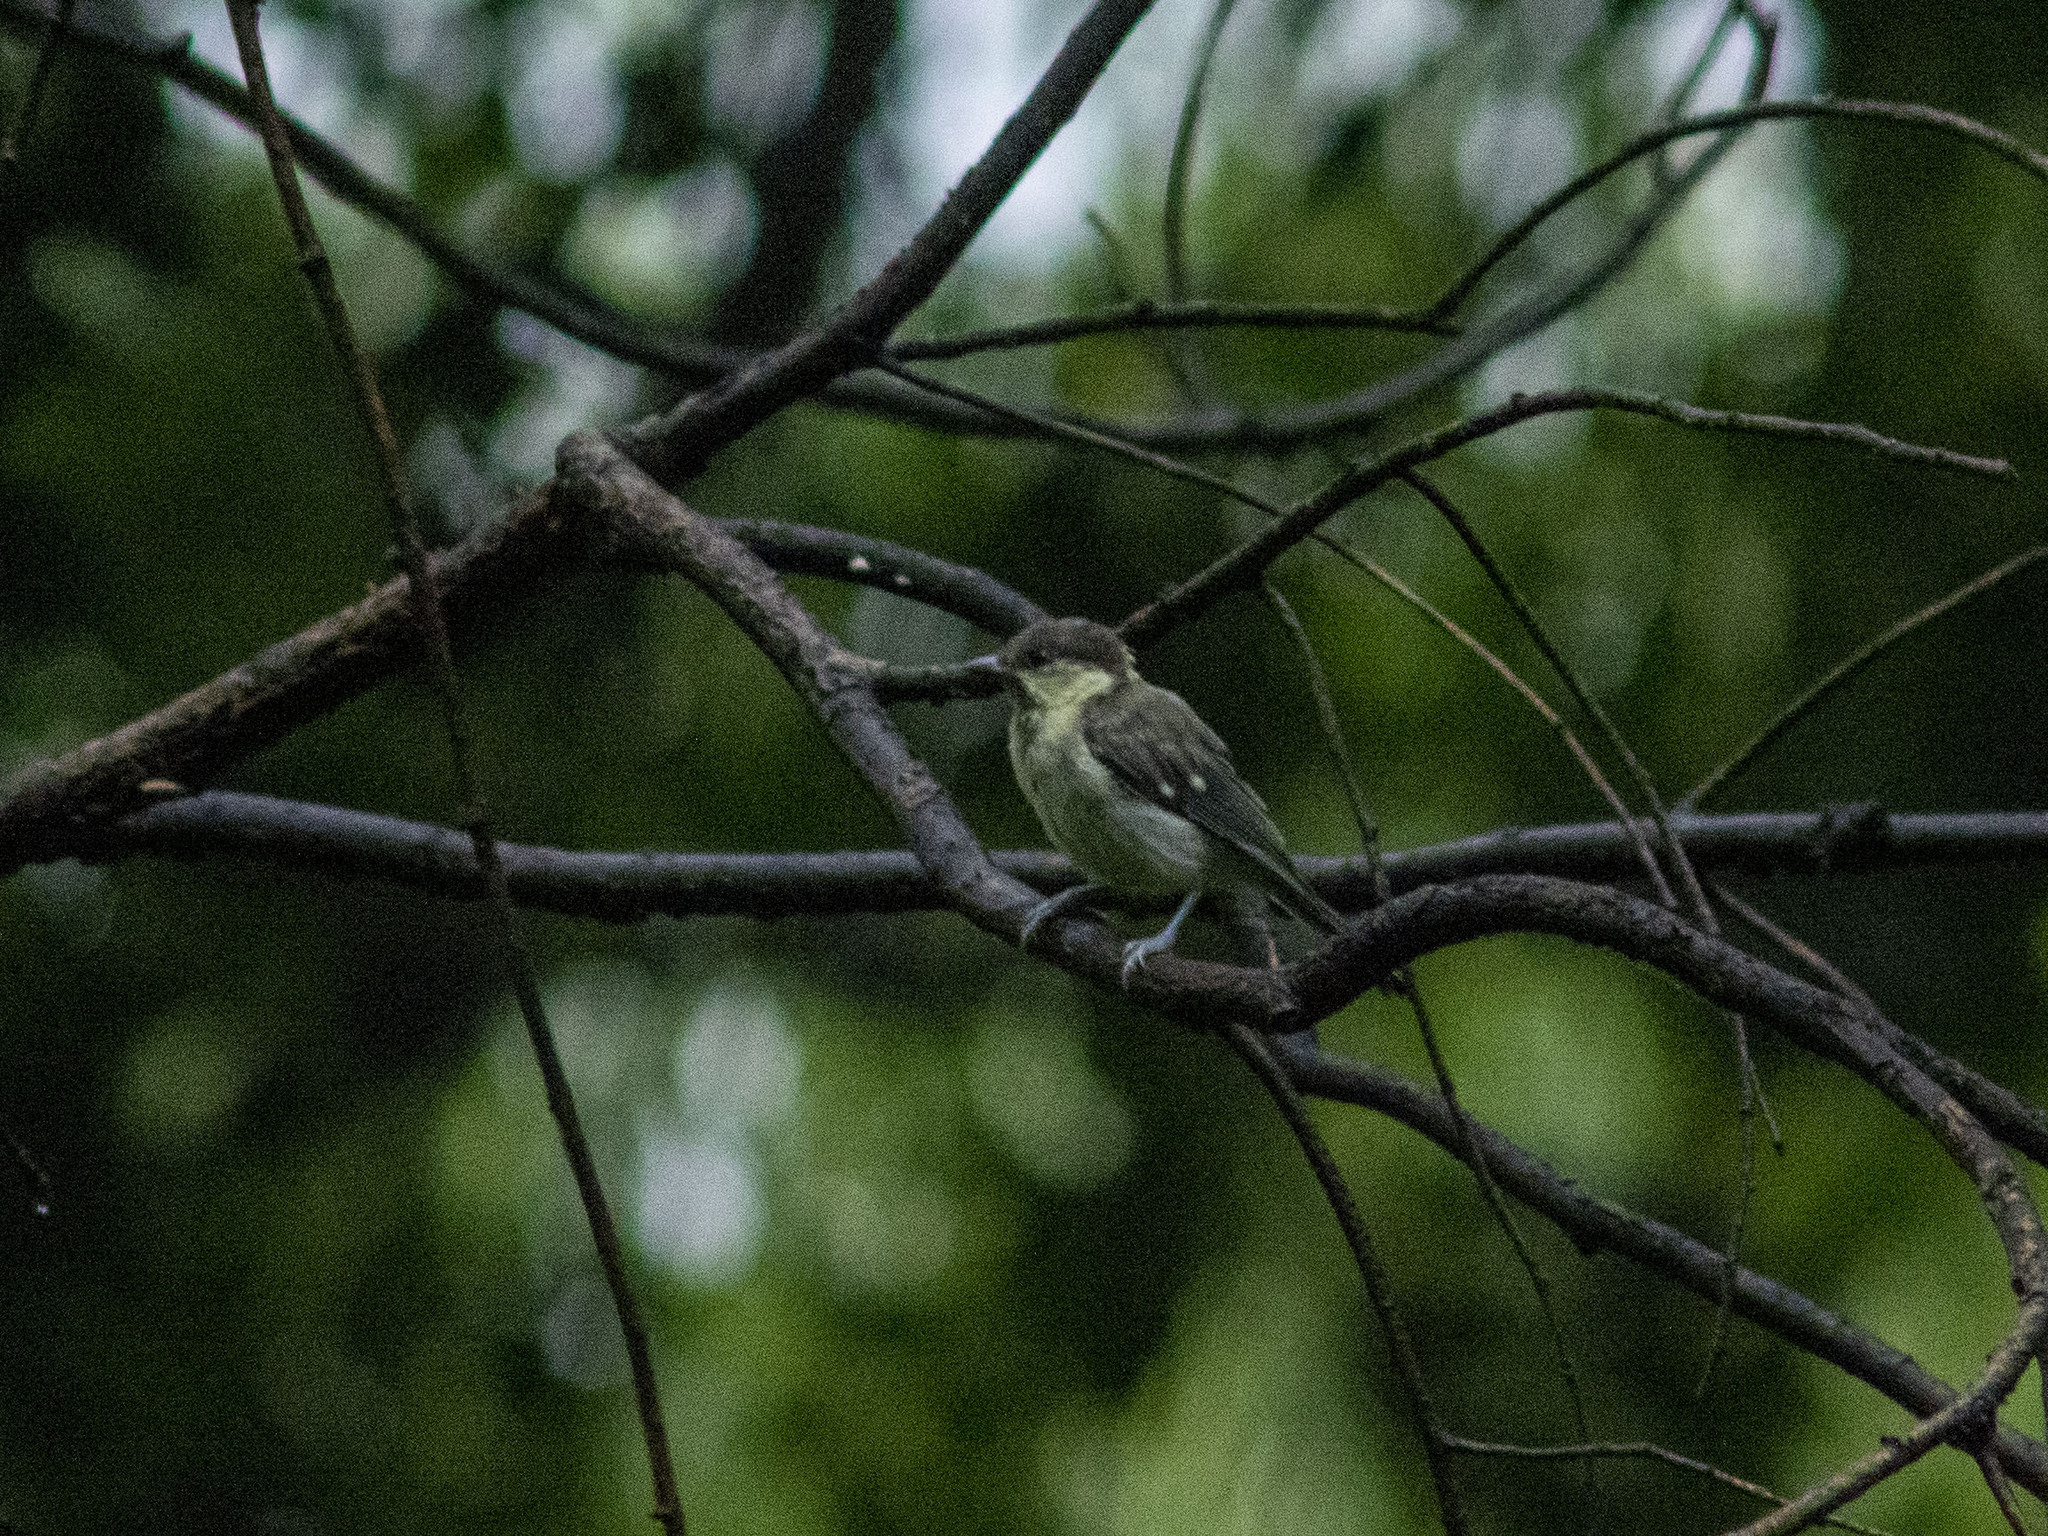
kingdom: Animalia
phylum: Chordata
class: Aves
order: Passeriformes
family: Paridae
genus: Parus
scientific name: Parus minor
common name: Japanese tit
